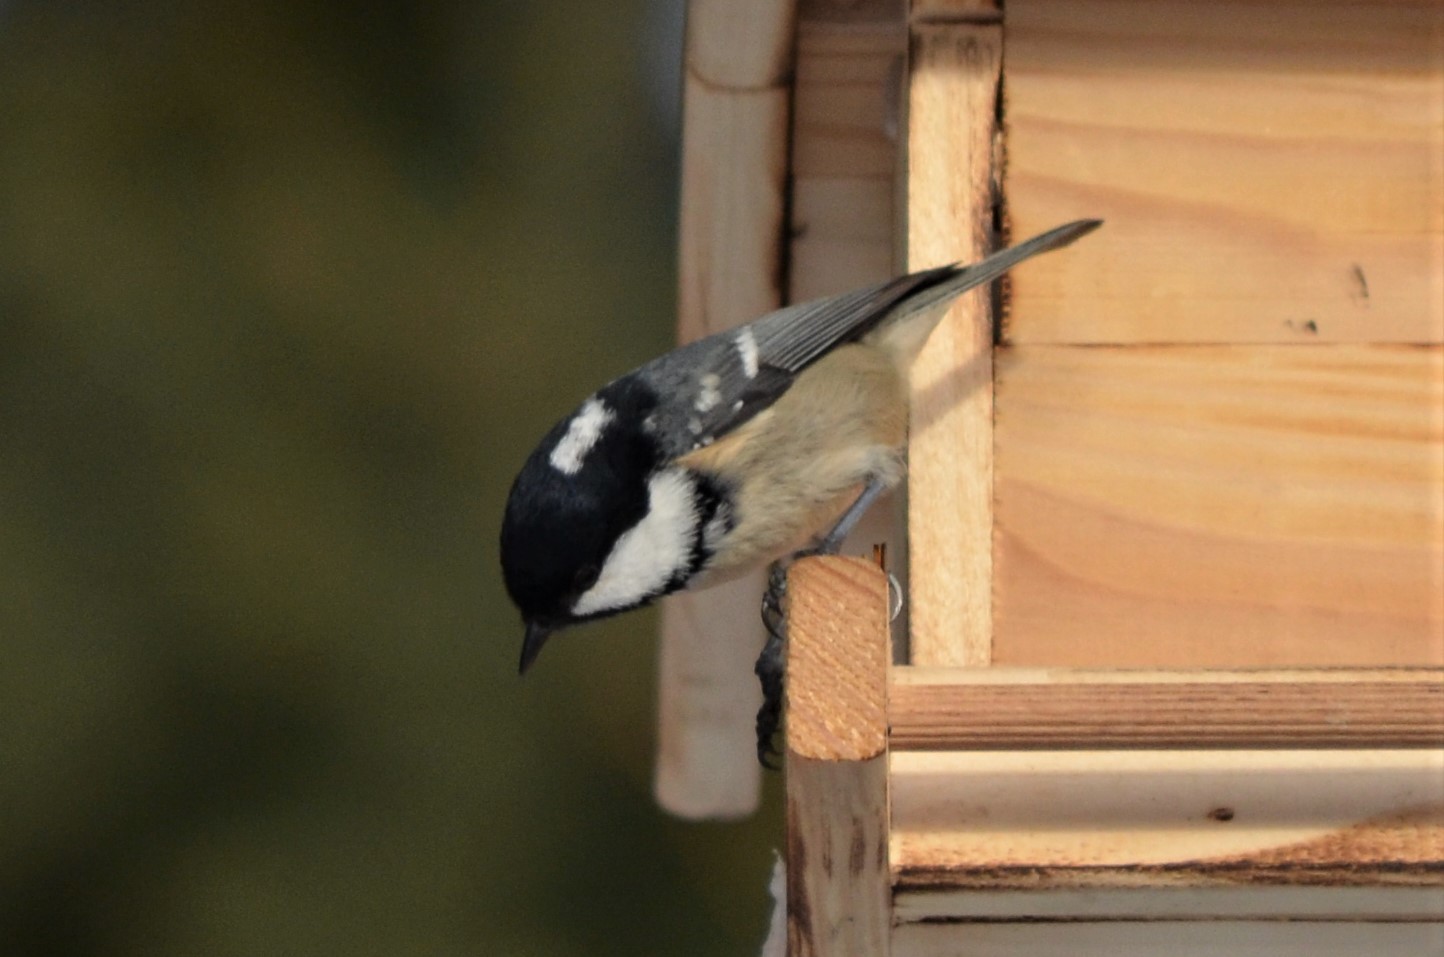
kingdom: Animalia
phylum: Chordata
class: Aves
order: Passeriformes
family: Paridae
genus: Periparus
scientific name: Periparus ater
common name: Coal tit
